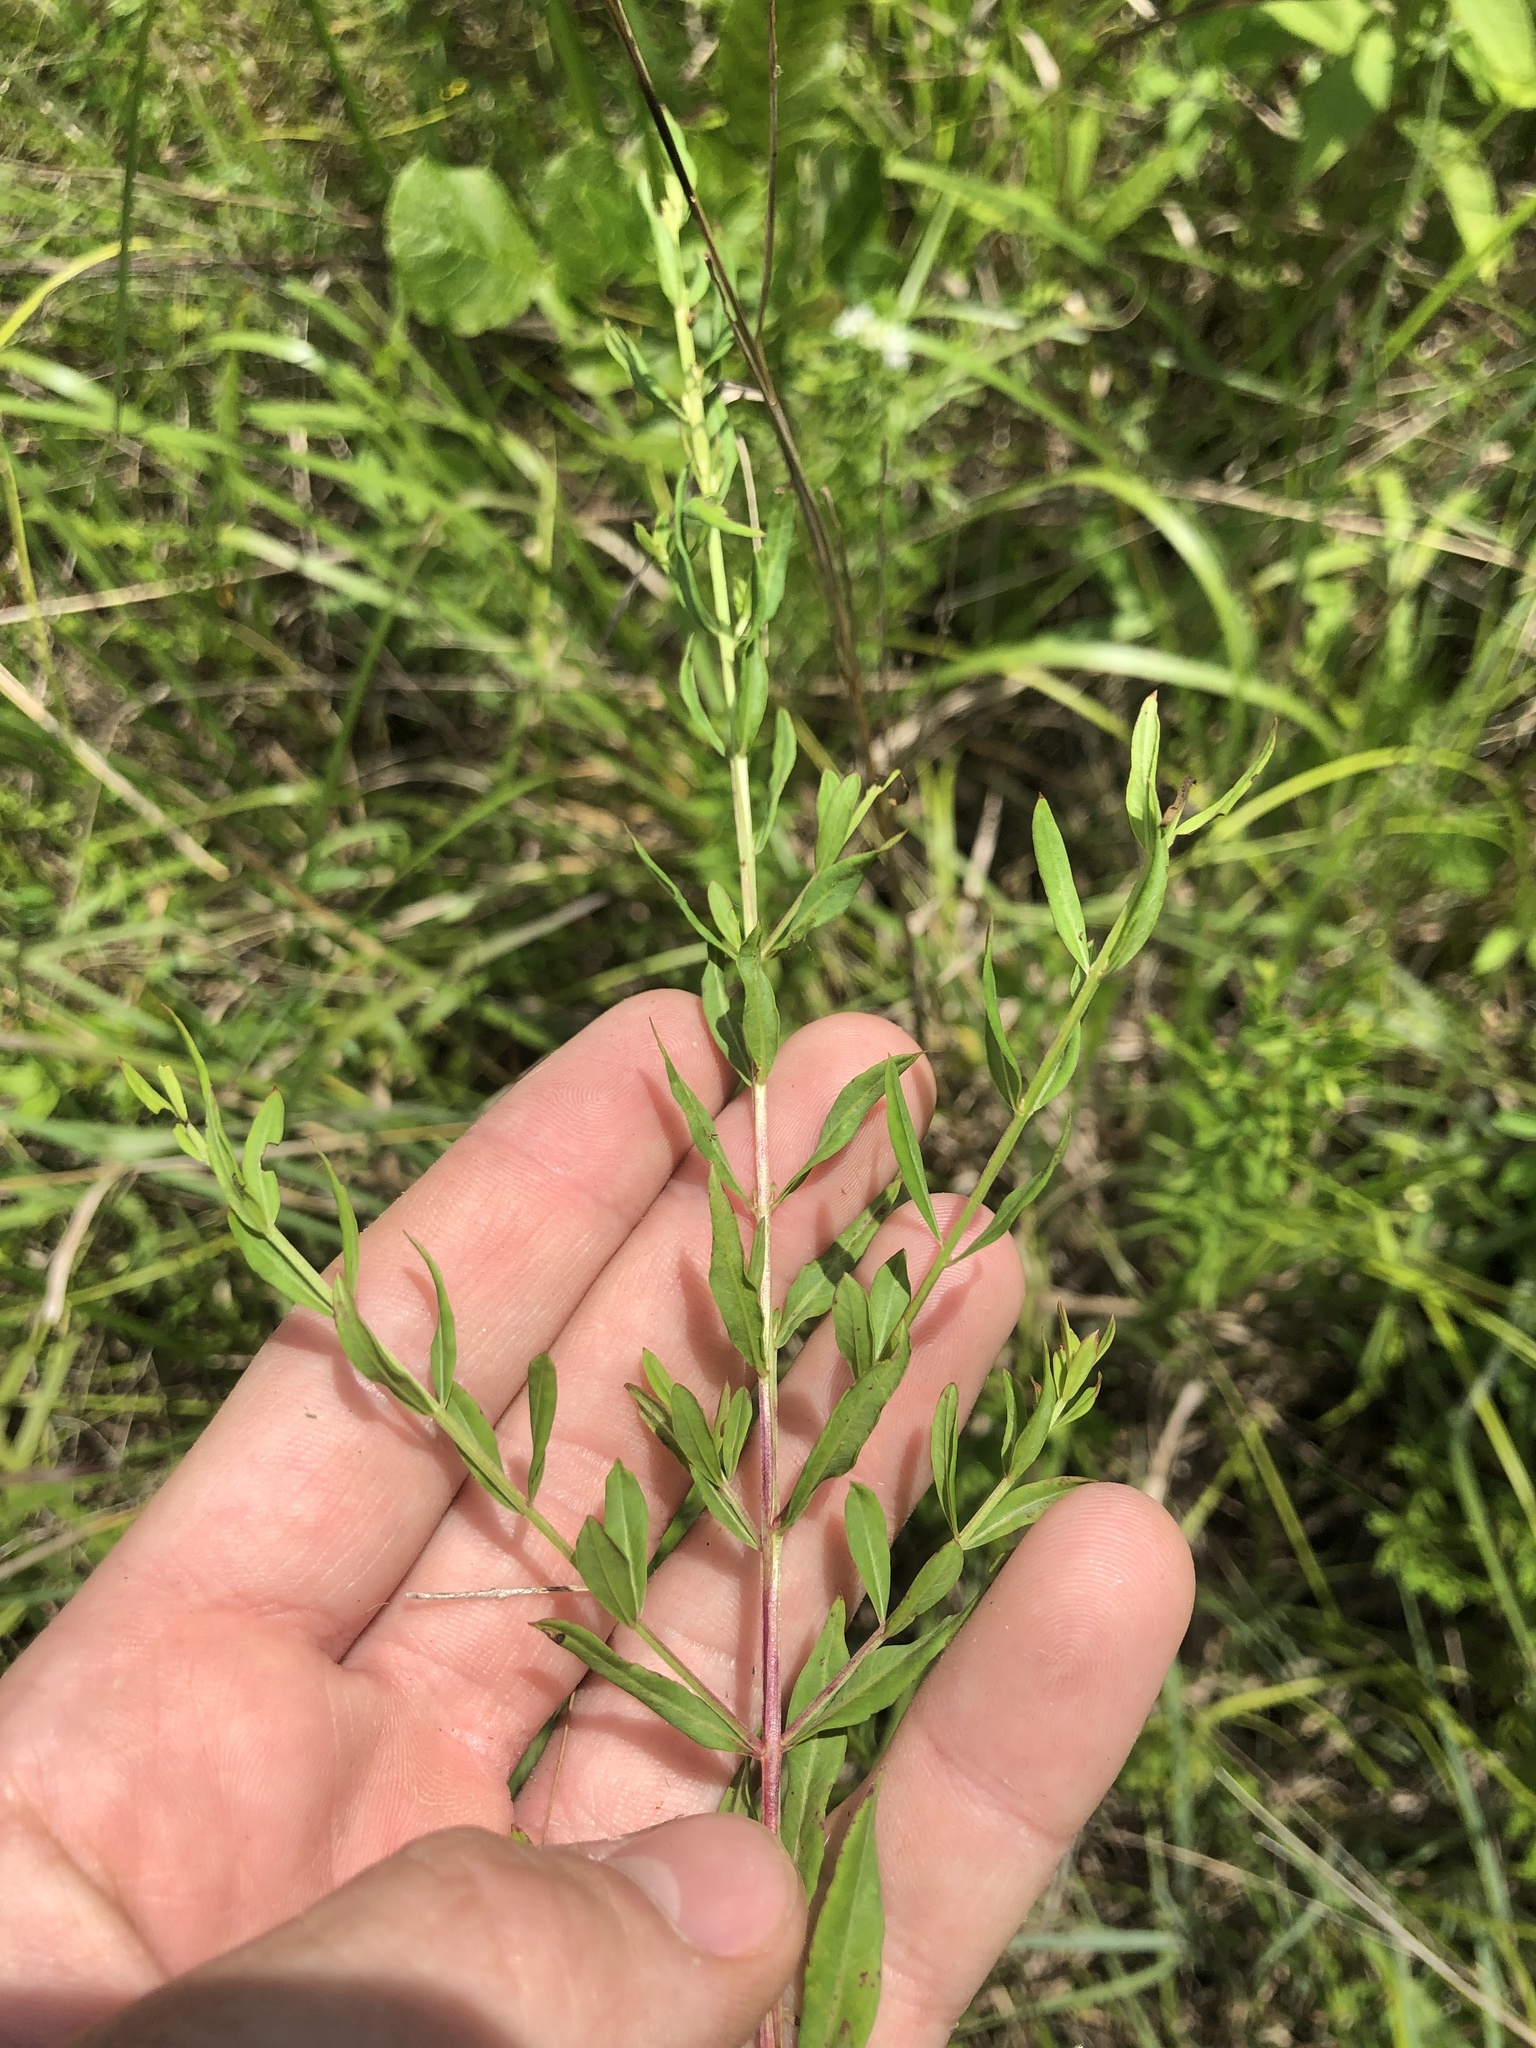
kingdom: Plantae
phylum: Tracheophyta
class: Magnoliopsida
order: Myrtales
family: Lythraceae
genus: Lythrum
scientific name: Lythrum alatum
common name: Winged loosestrife
